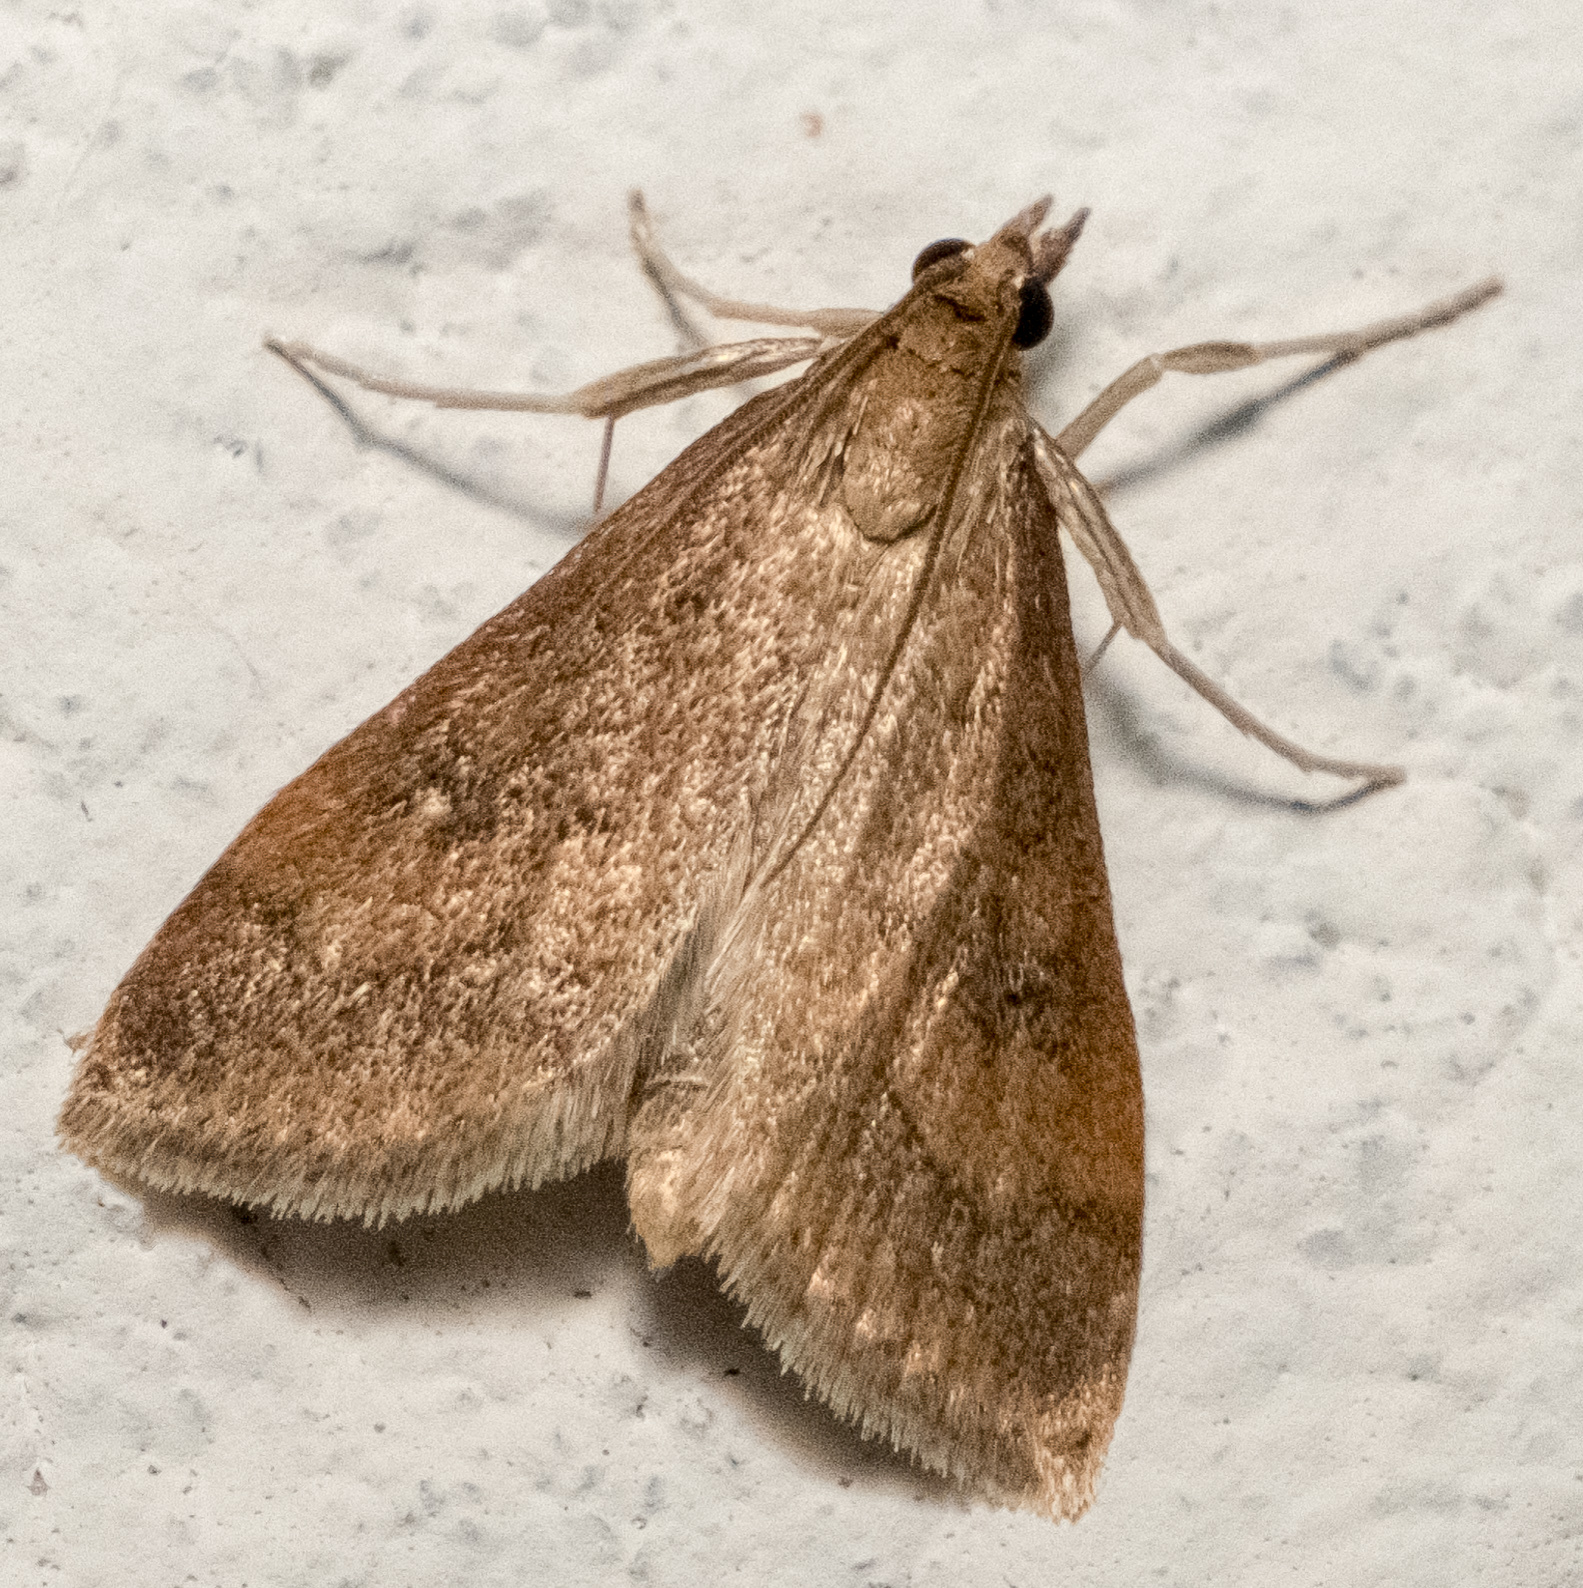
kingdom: Animalia
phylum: Arthropoda
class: Insecta
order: Lepidoptera
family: Crambidae
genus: Udea
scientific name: Udea rubigalis
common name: Celery leaftier moth
